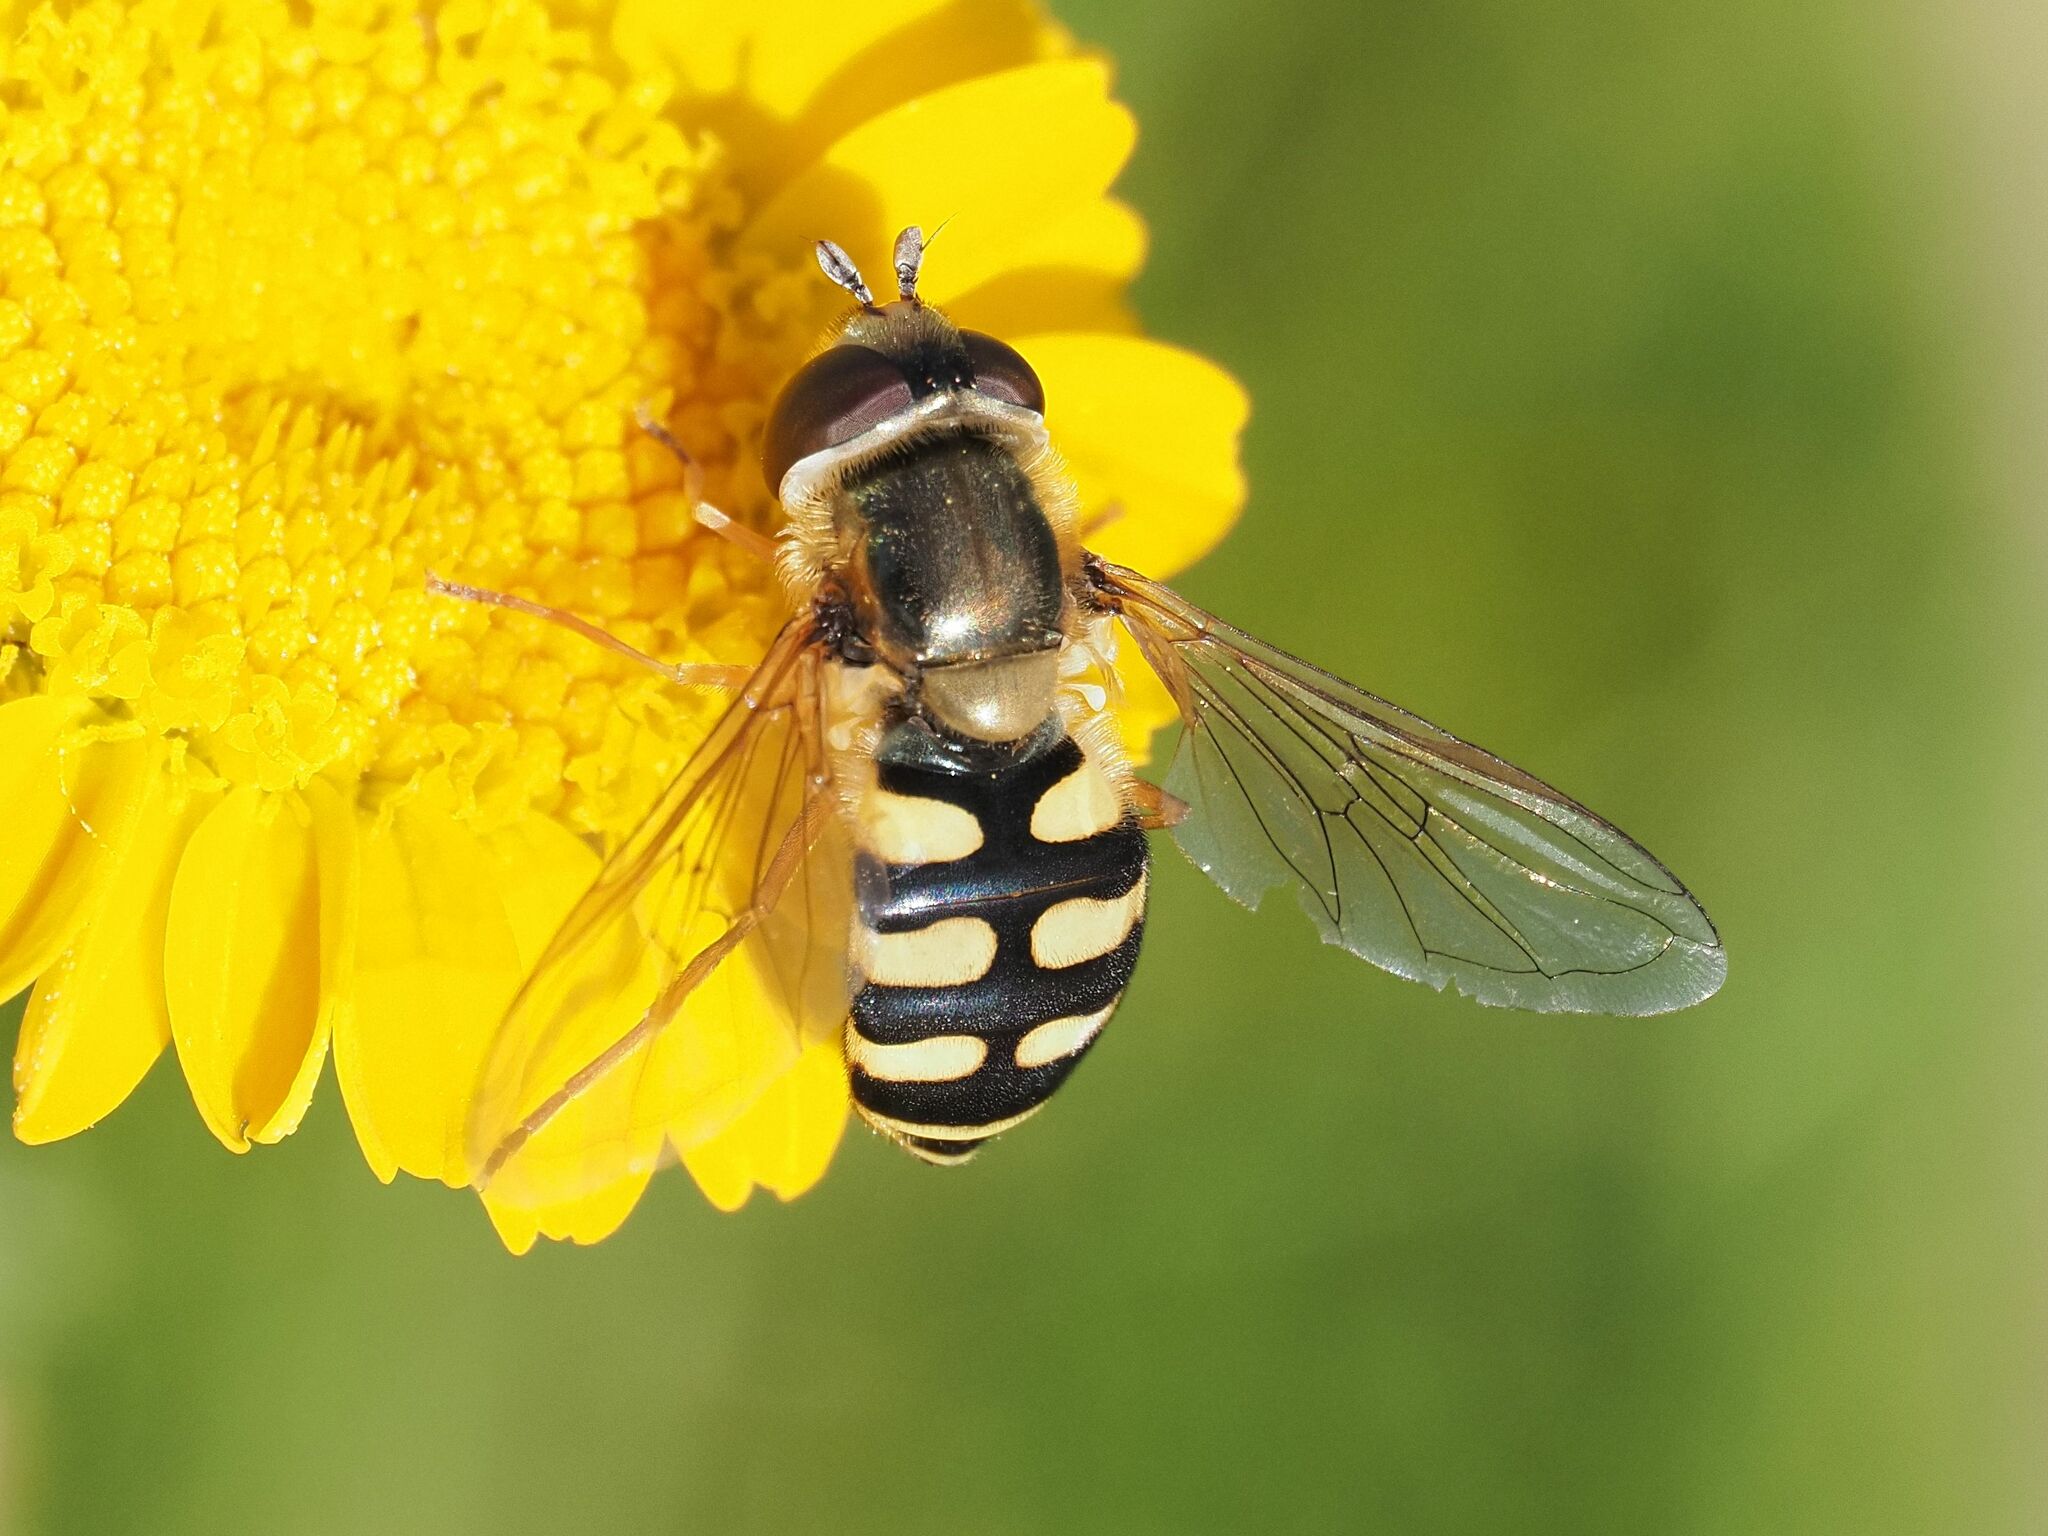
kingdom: Animalia
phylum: Arthropoda
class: Insecta
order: Diptera
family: Syrphidae
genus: Eupeodes
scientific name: Eupeodes corollae
